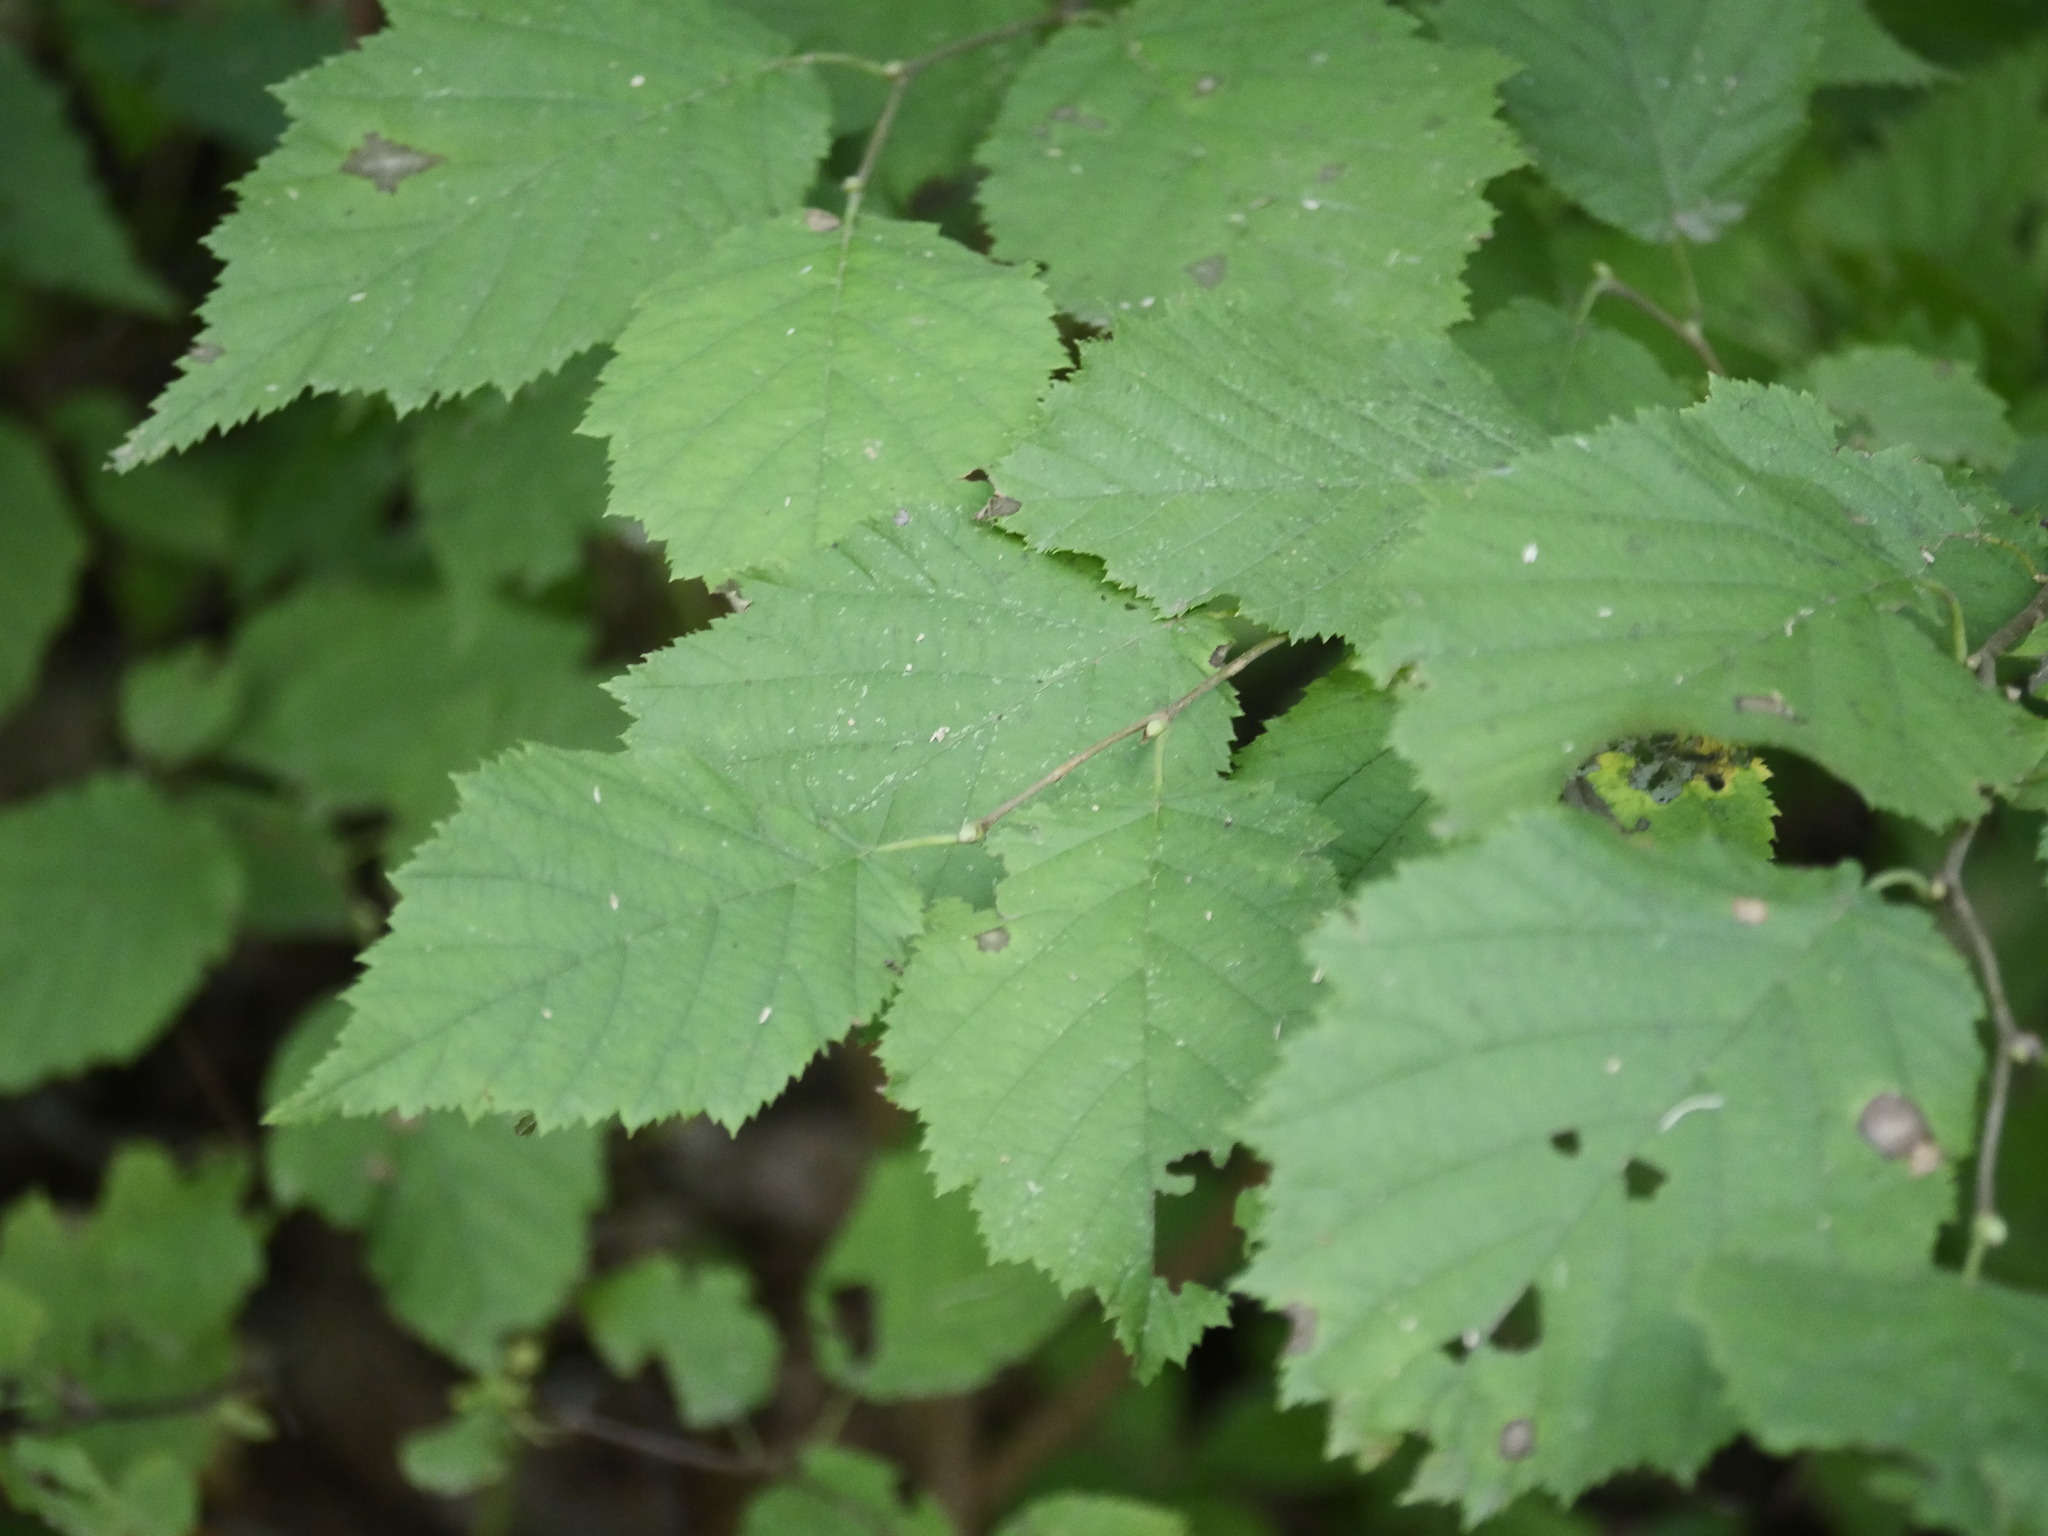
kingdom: Plantae
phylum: Tracheophyta
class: Magnoliopsida
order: Fagales
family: Betulaceae
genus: Corylus
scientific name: Corylus cornuta
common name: Beaked hazel
